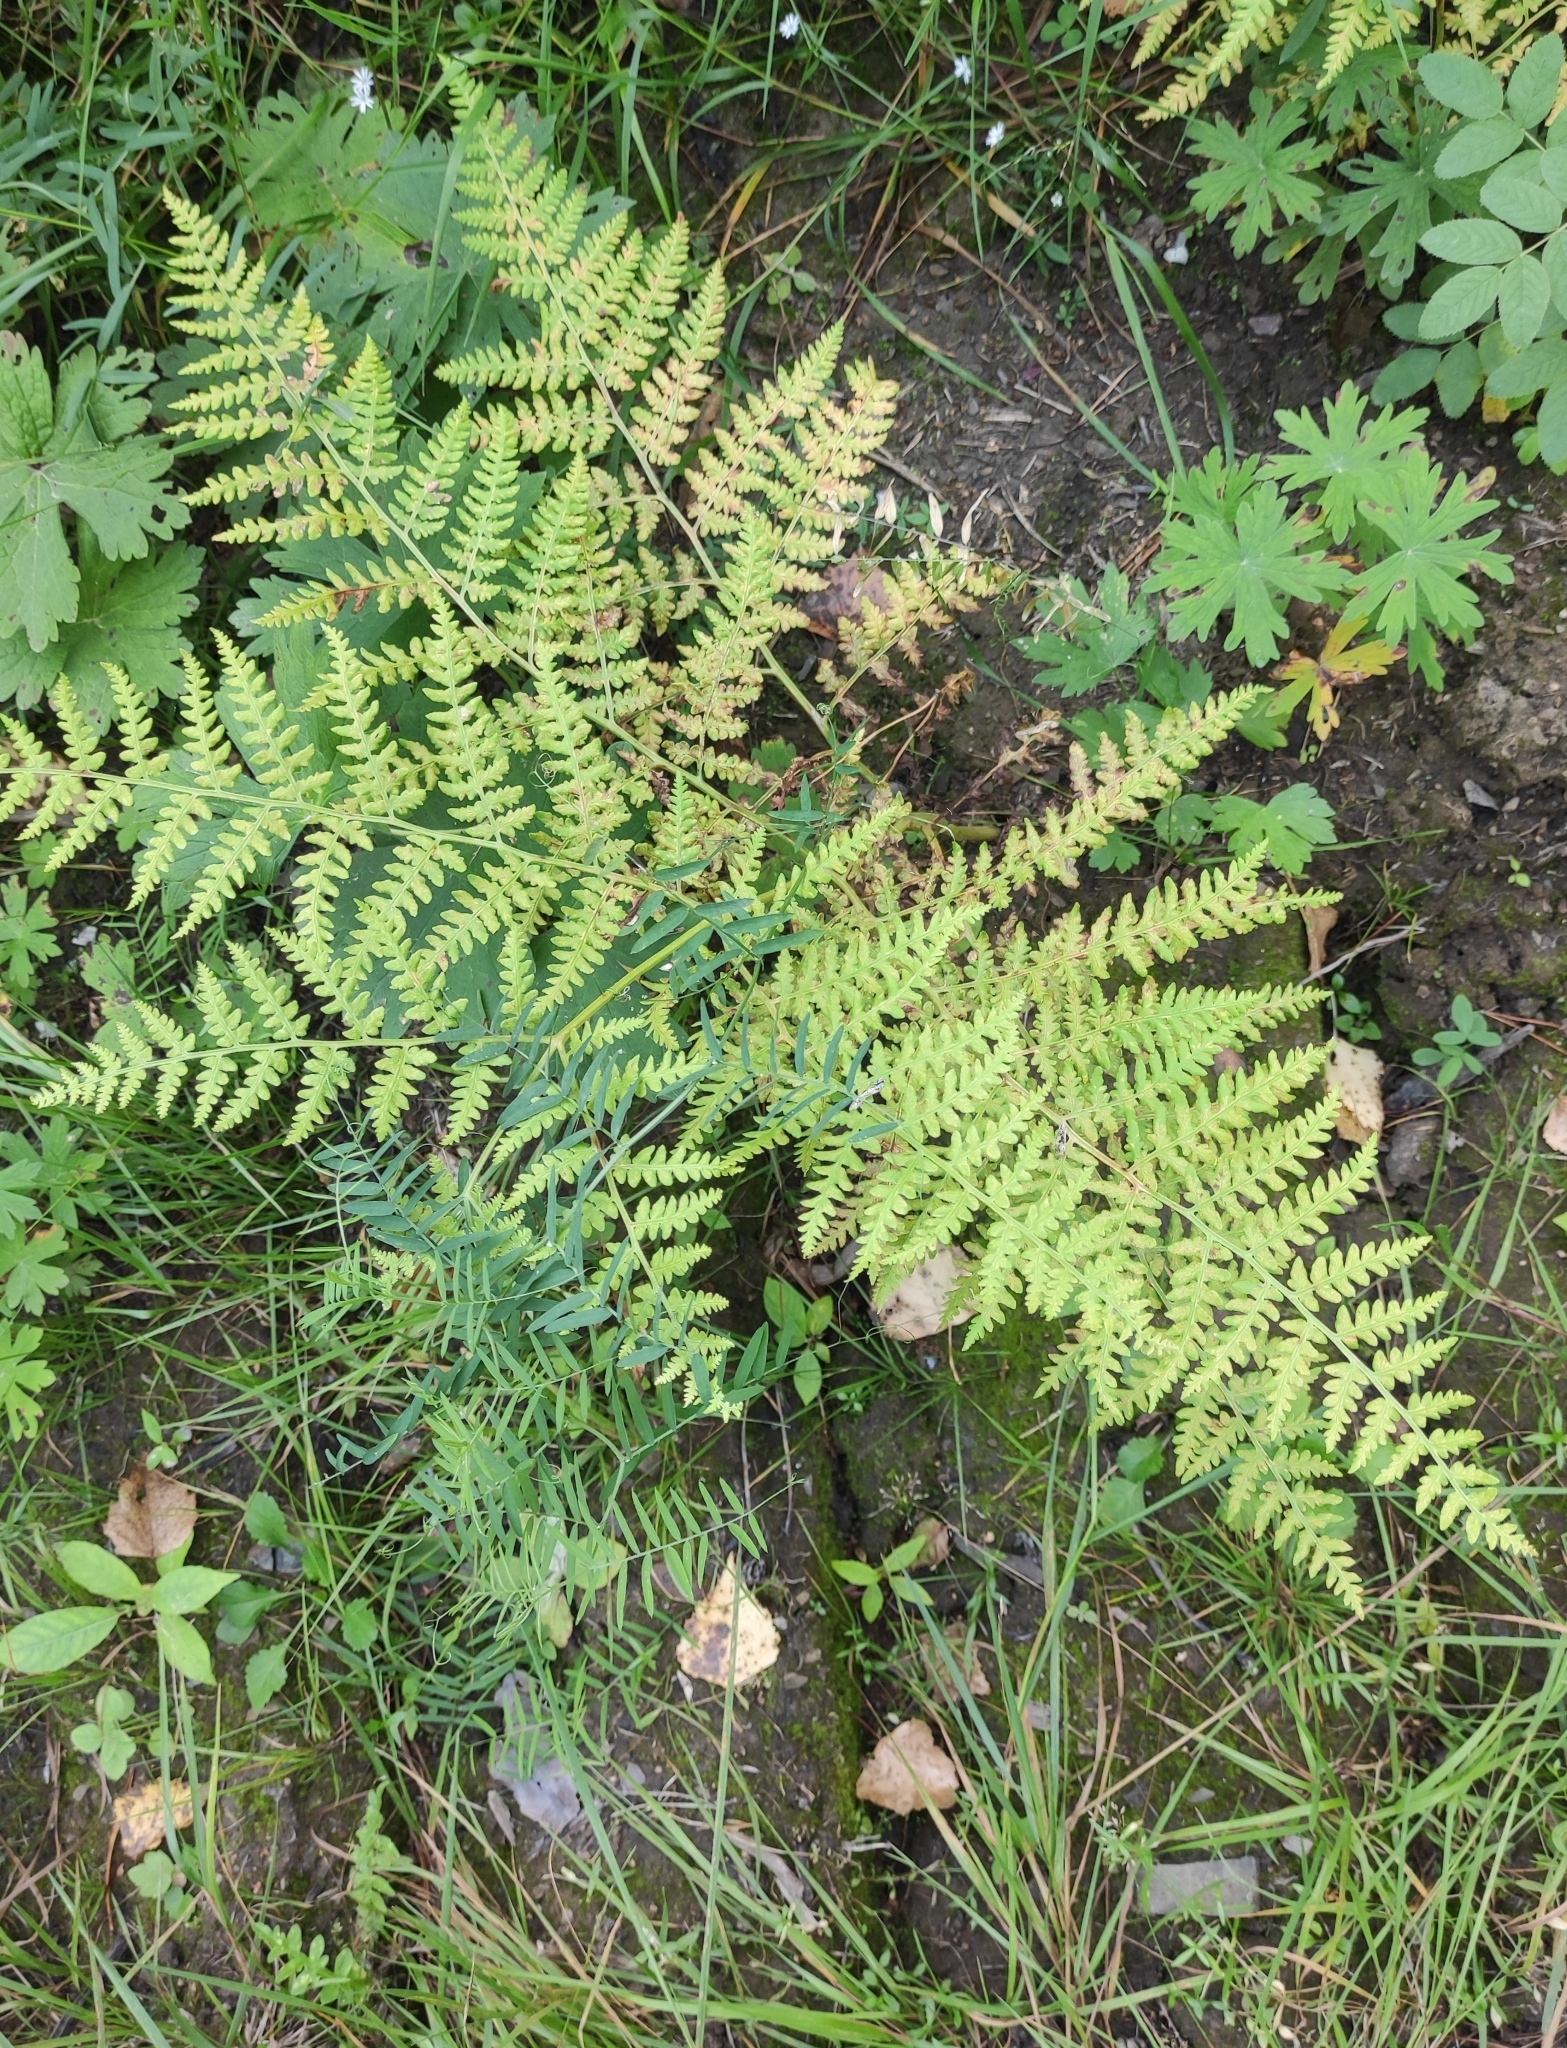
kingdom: Plantae
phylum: Tracheophyta
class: Polypodiopsida
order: Polypodiales
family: Dennstaedtiaceae
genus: Pteridium
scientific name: Pteridium aquilinum
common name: Bracken
